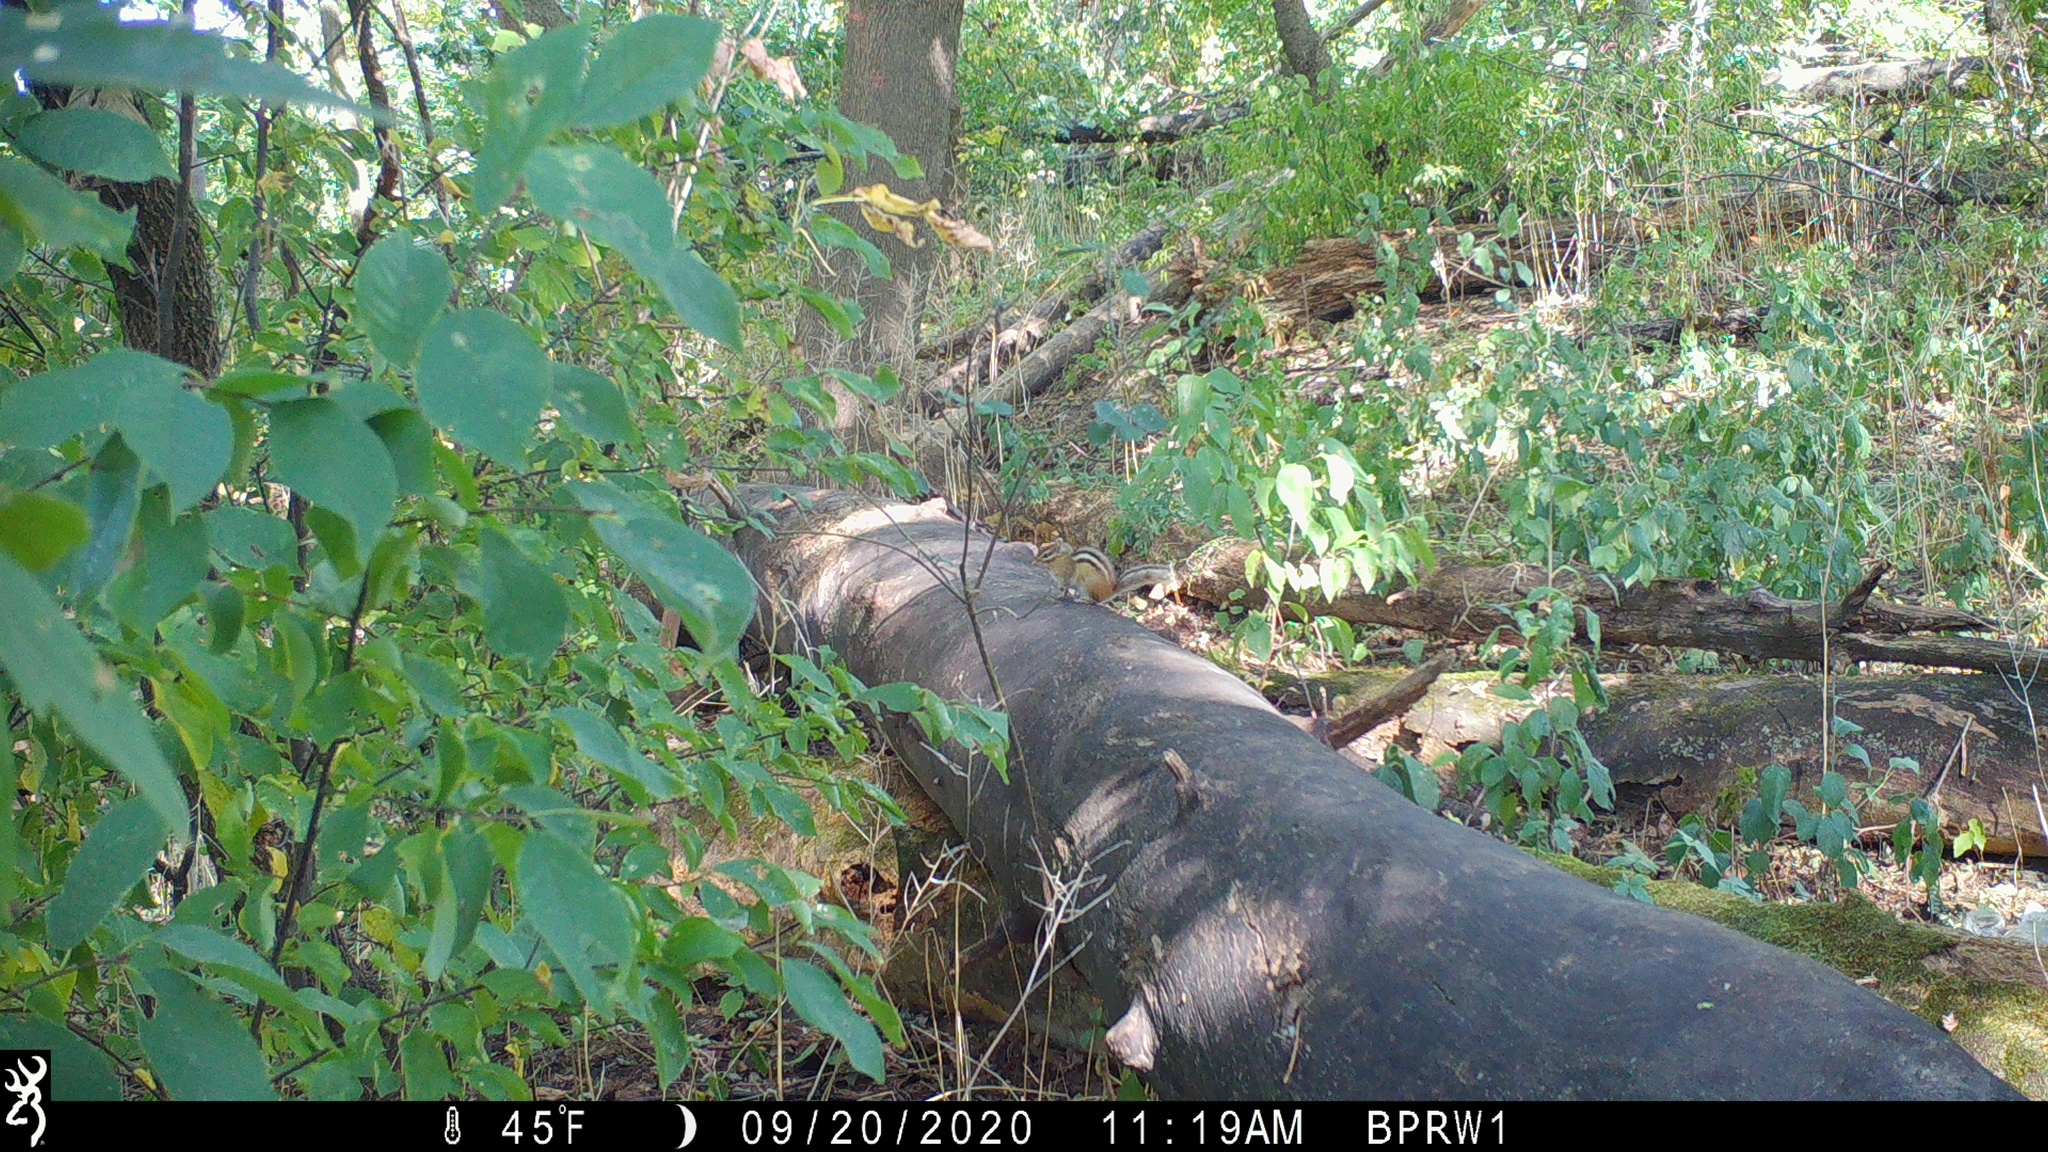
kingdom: Animalia
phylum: Chordata
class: Mammalia
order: Rodentia
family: Sciuridae
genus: Tamias
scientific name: Tamias striatus
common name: Eastern chipmunk
